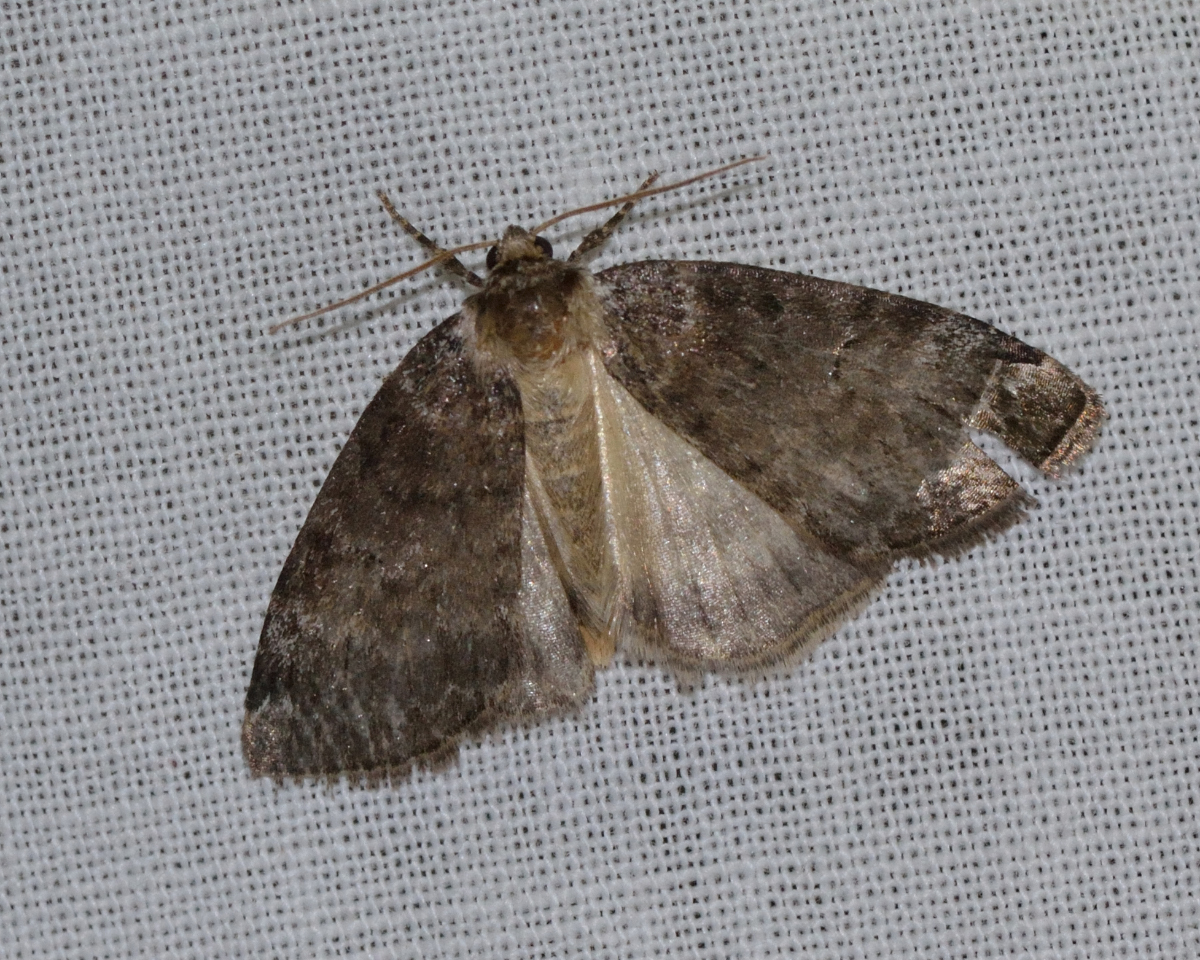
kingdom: Animalia
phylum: Arthropoda
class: Insecta
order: Lepidoptera
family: Drepanidae
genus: Tetheella
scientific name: Tetheella fluctuosa
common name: Satin lutestring
